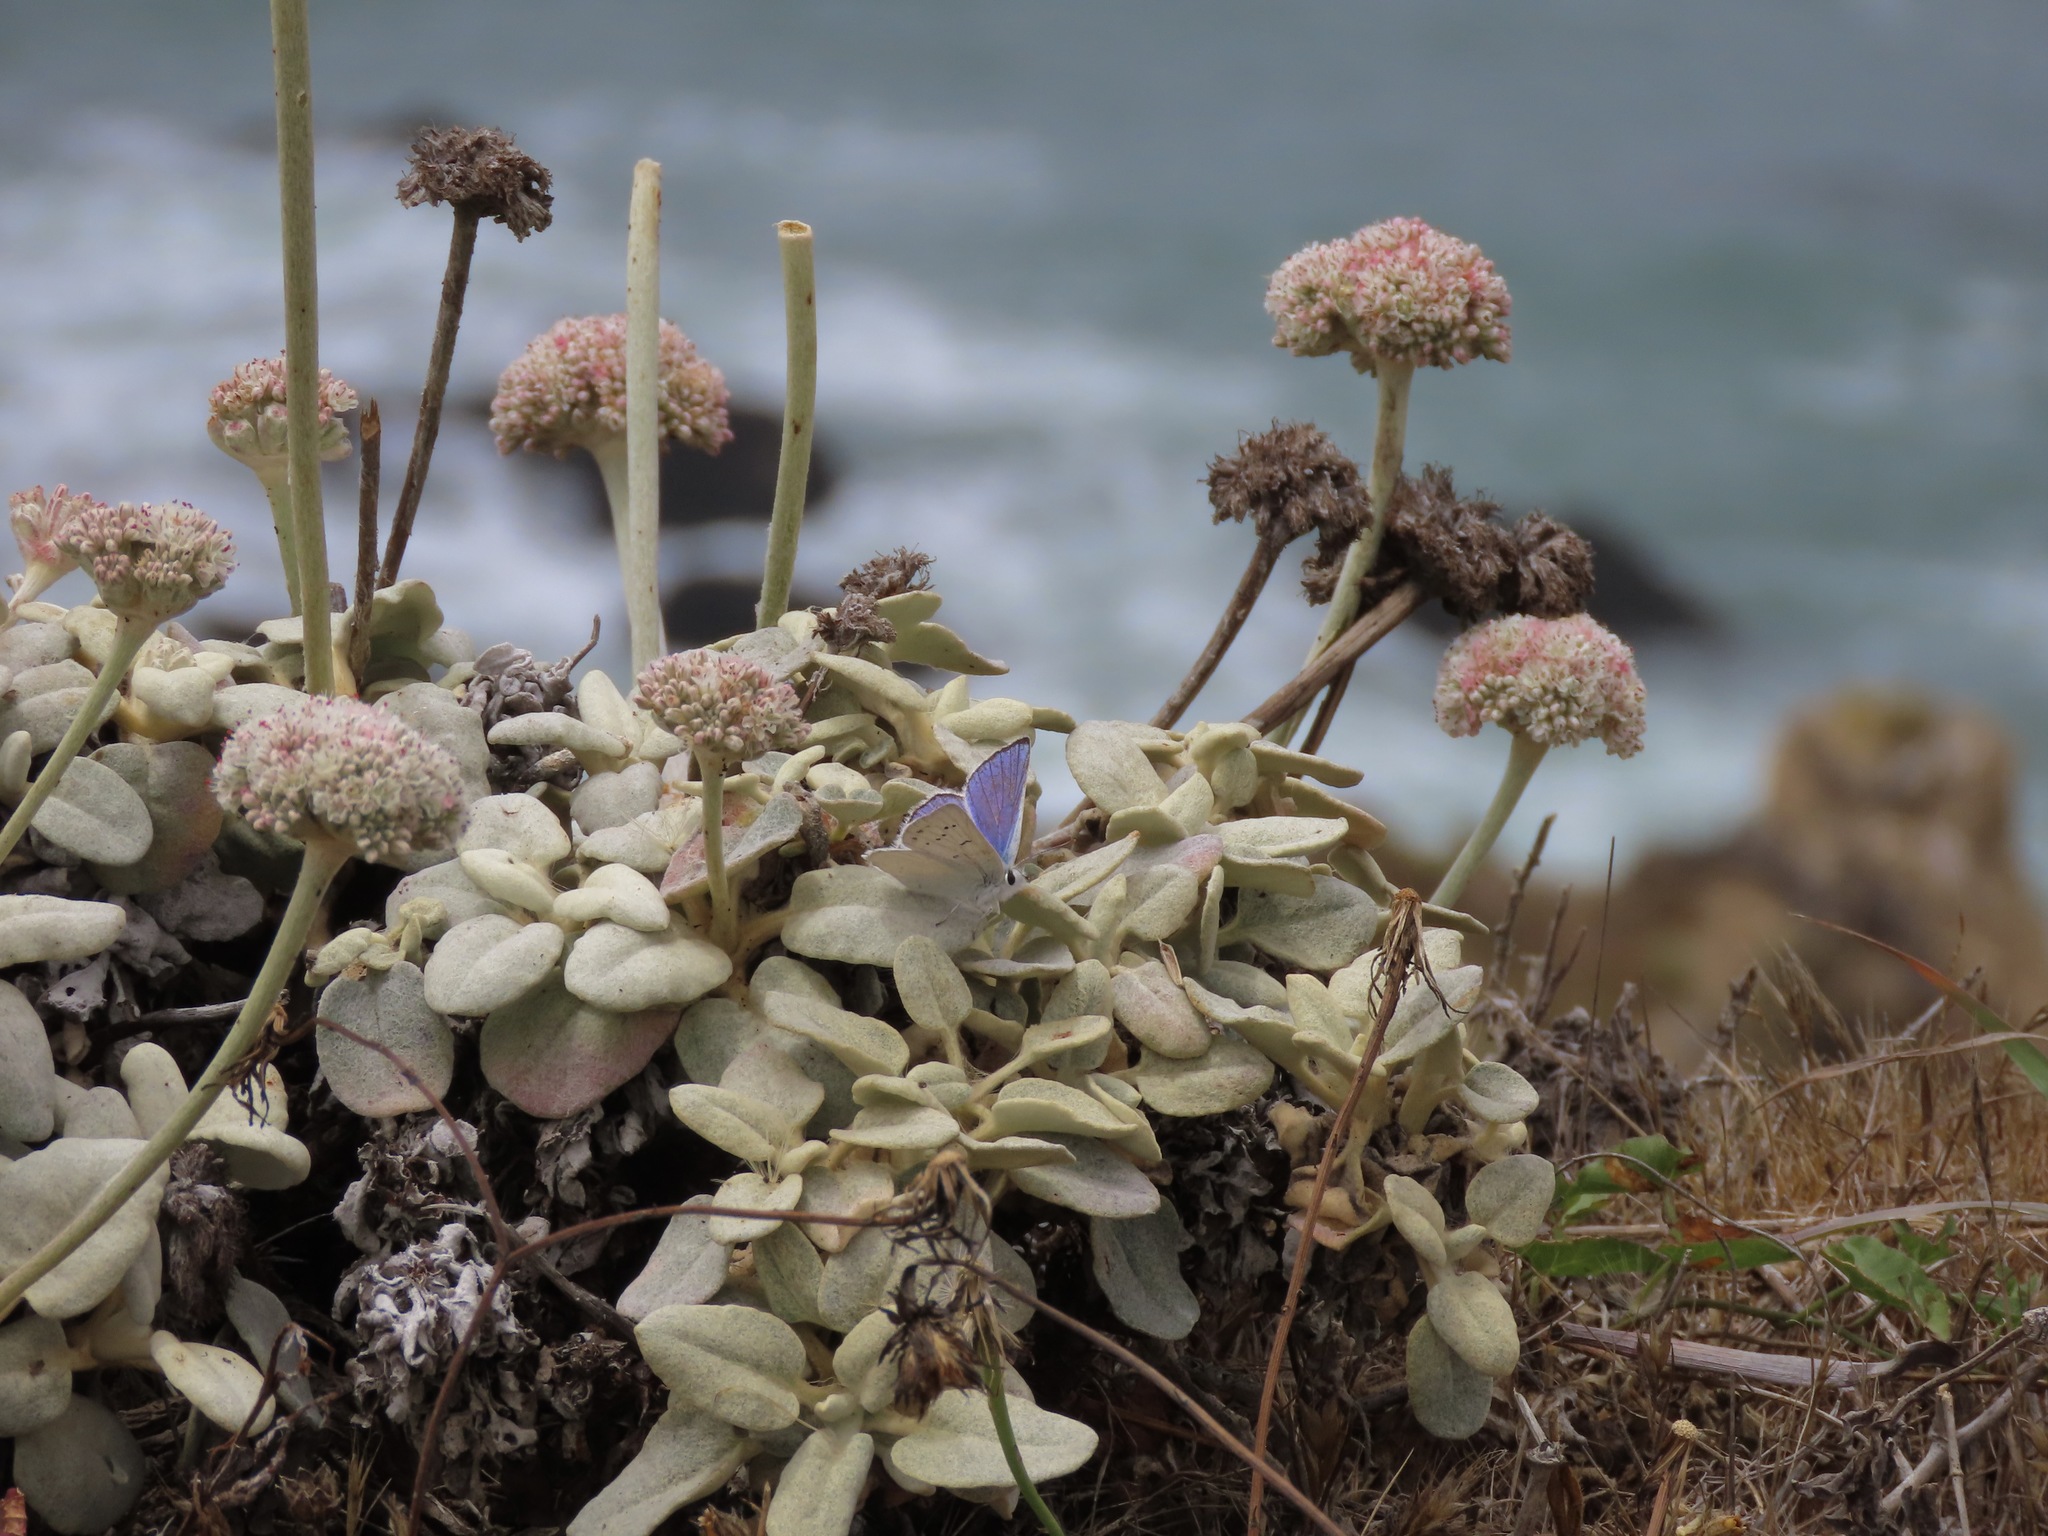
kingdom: Animalia
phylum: Arthropoda
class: Insecta
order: Lepidoptera
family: Lycaenidae
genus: Tharsalea
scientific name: Tharsalea heteronea
